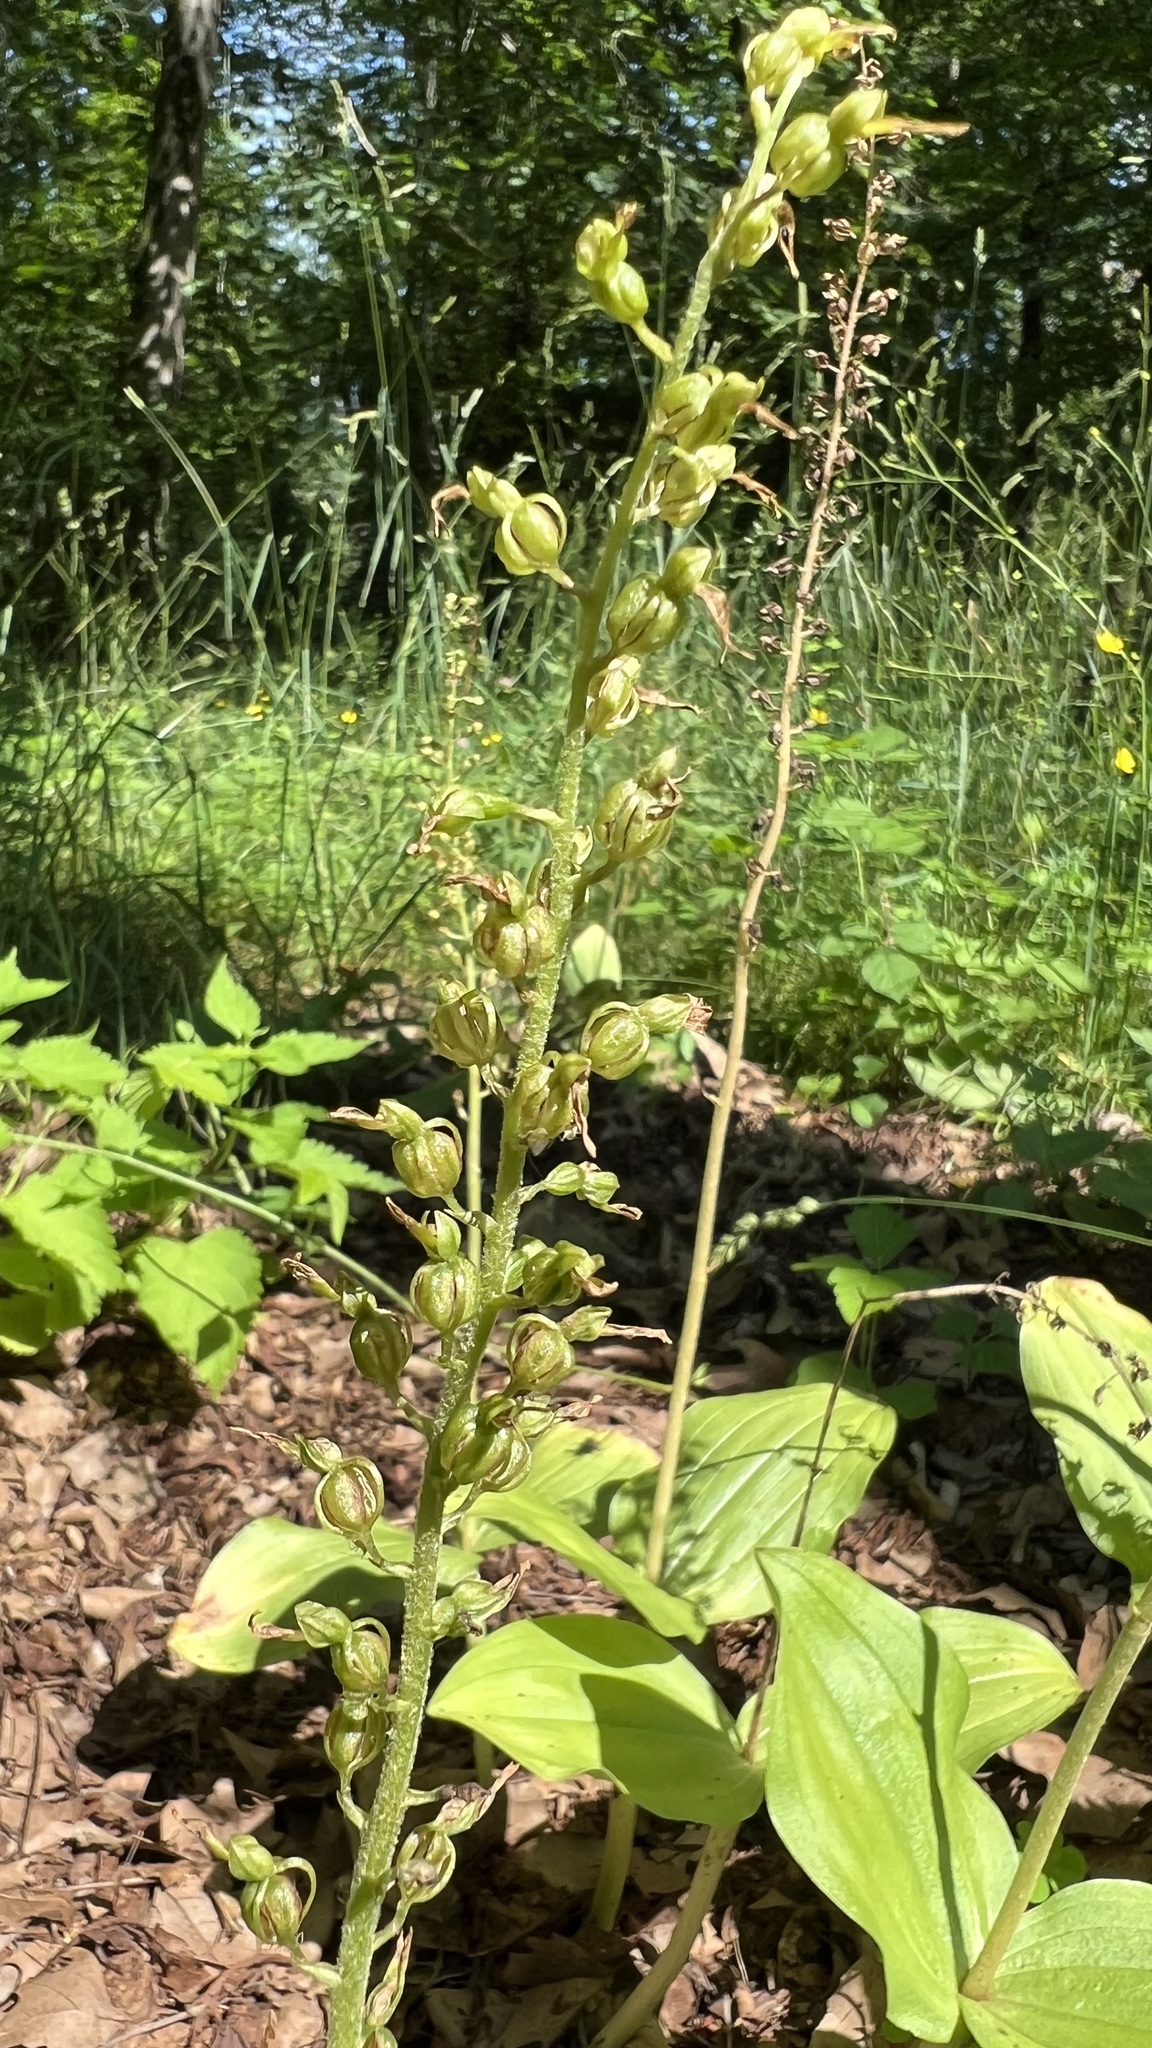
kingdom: Plantae
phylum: Tracheophyta
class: Liliopsida
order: Asparagales
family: Orchidaceae
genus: Neottia
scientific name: Neottia ovata
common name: Common twayblade
